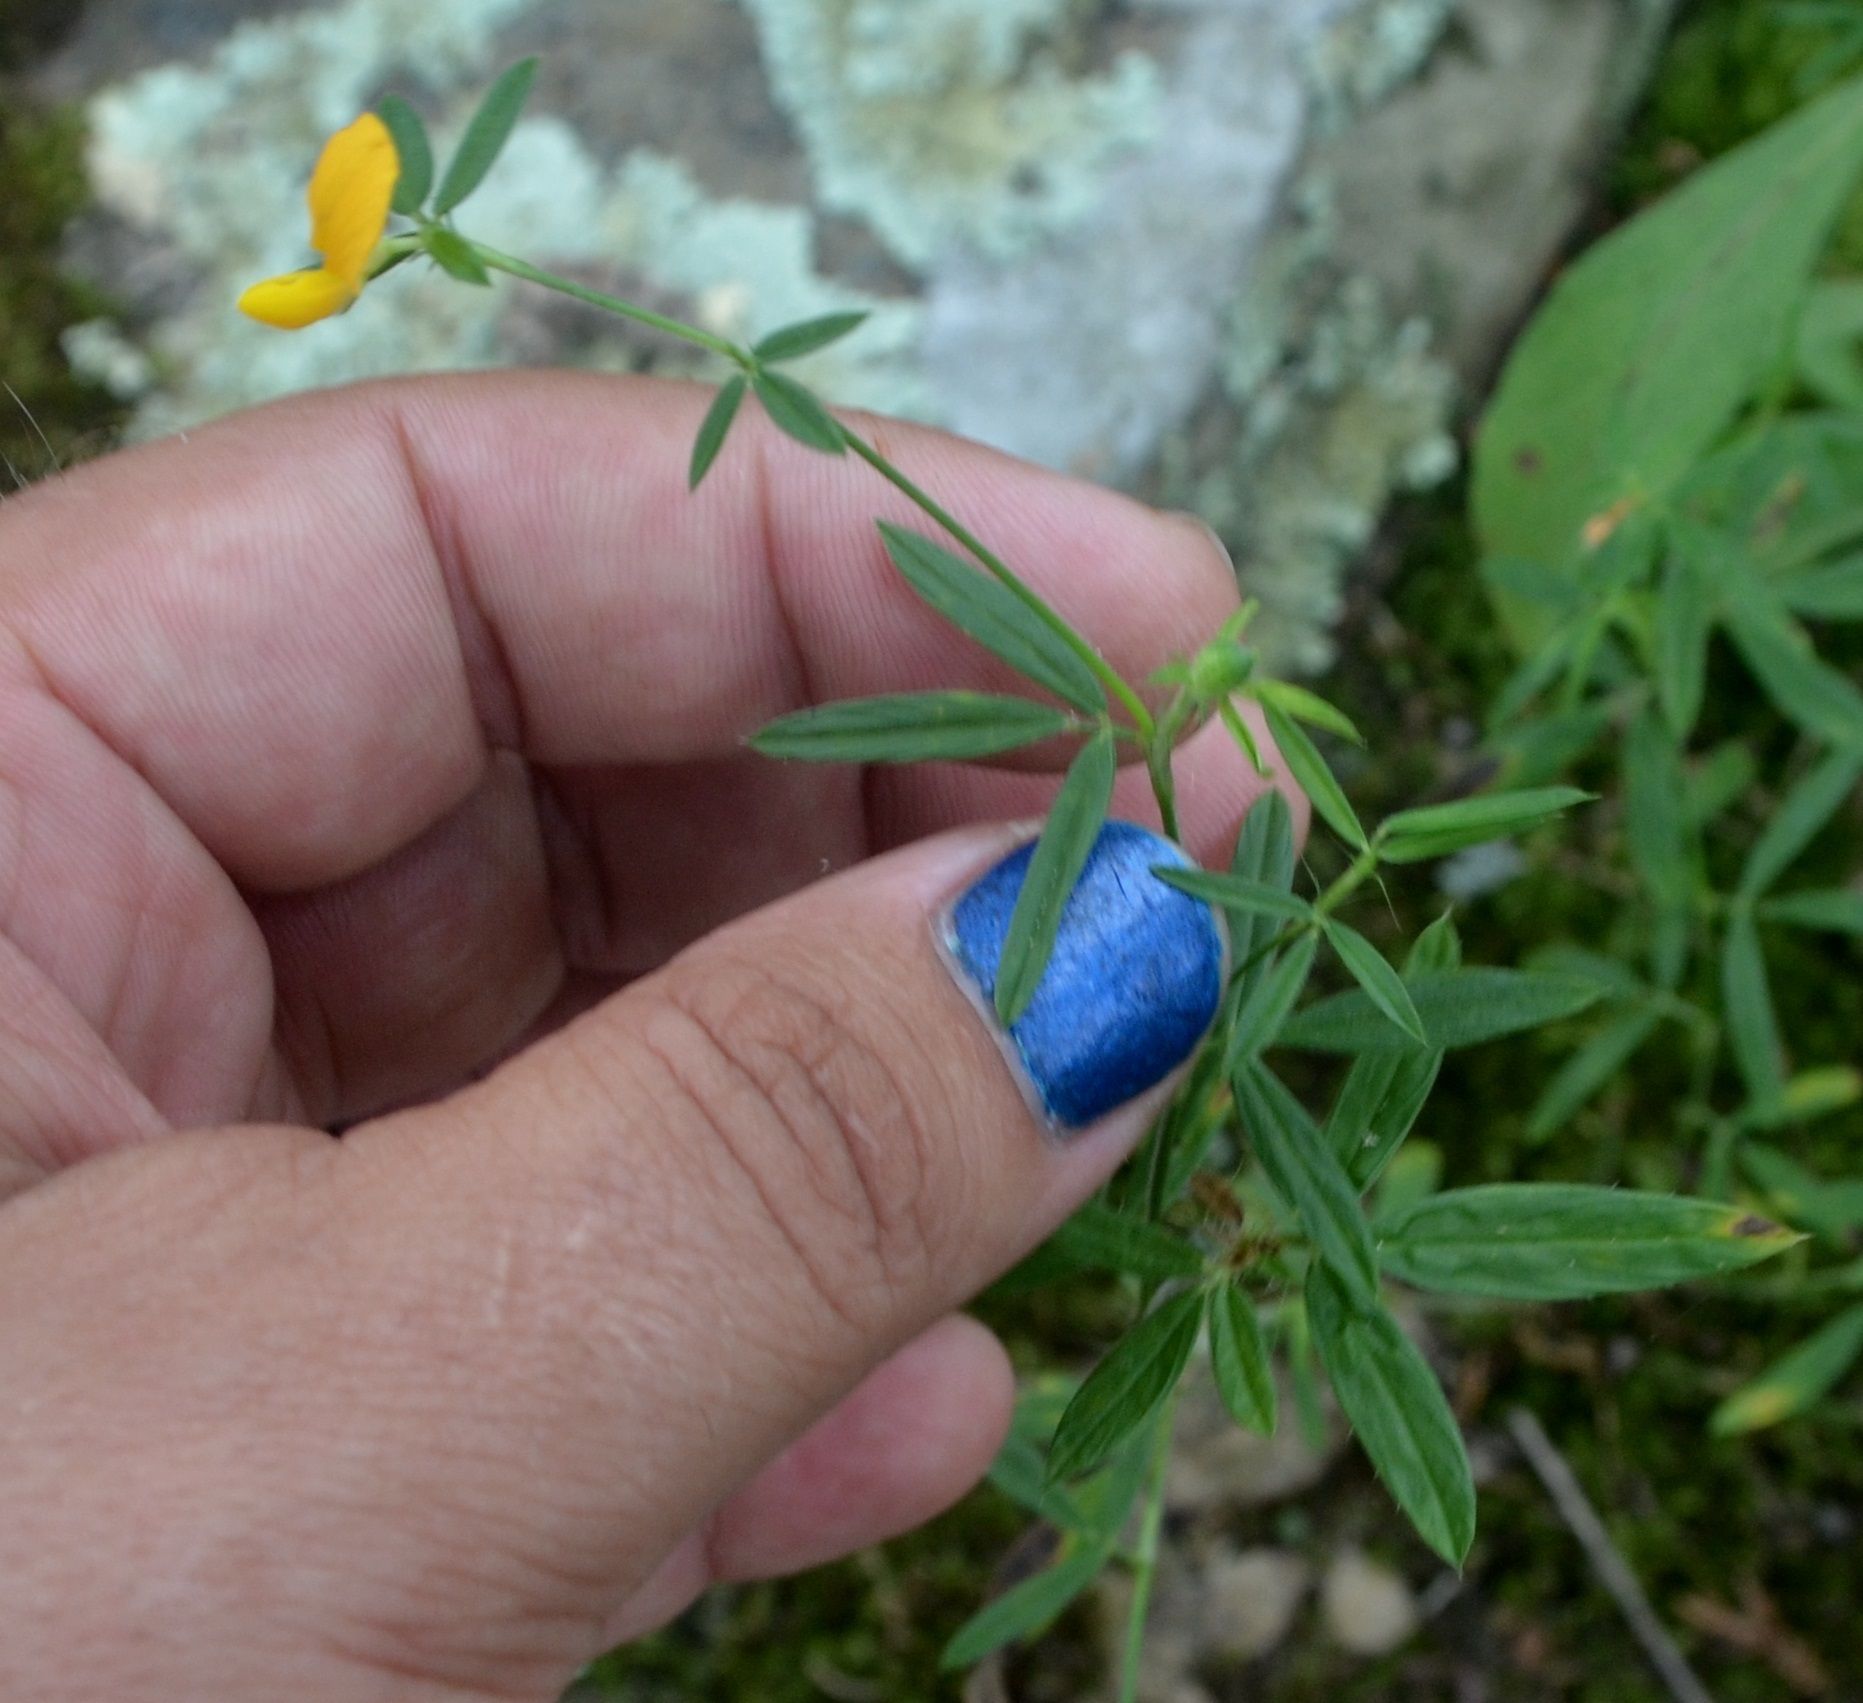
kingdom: Plantae
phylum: Tracheophyta
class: Magnoliopsida
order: Fabales
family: Fabaceae
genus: Stylosanthes
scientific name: Stylosanthes biflora
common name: Two-flower pencil-flower
